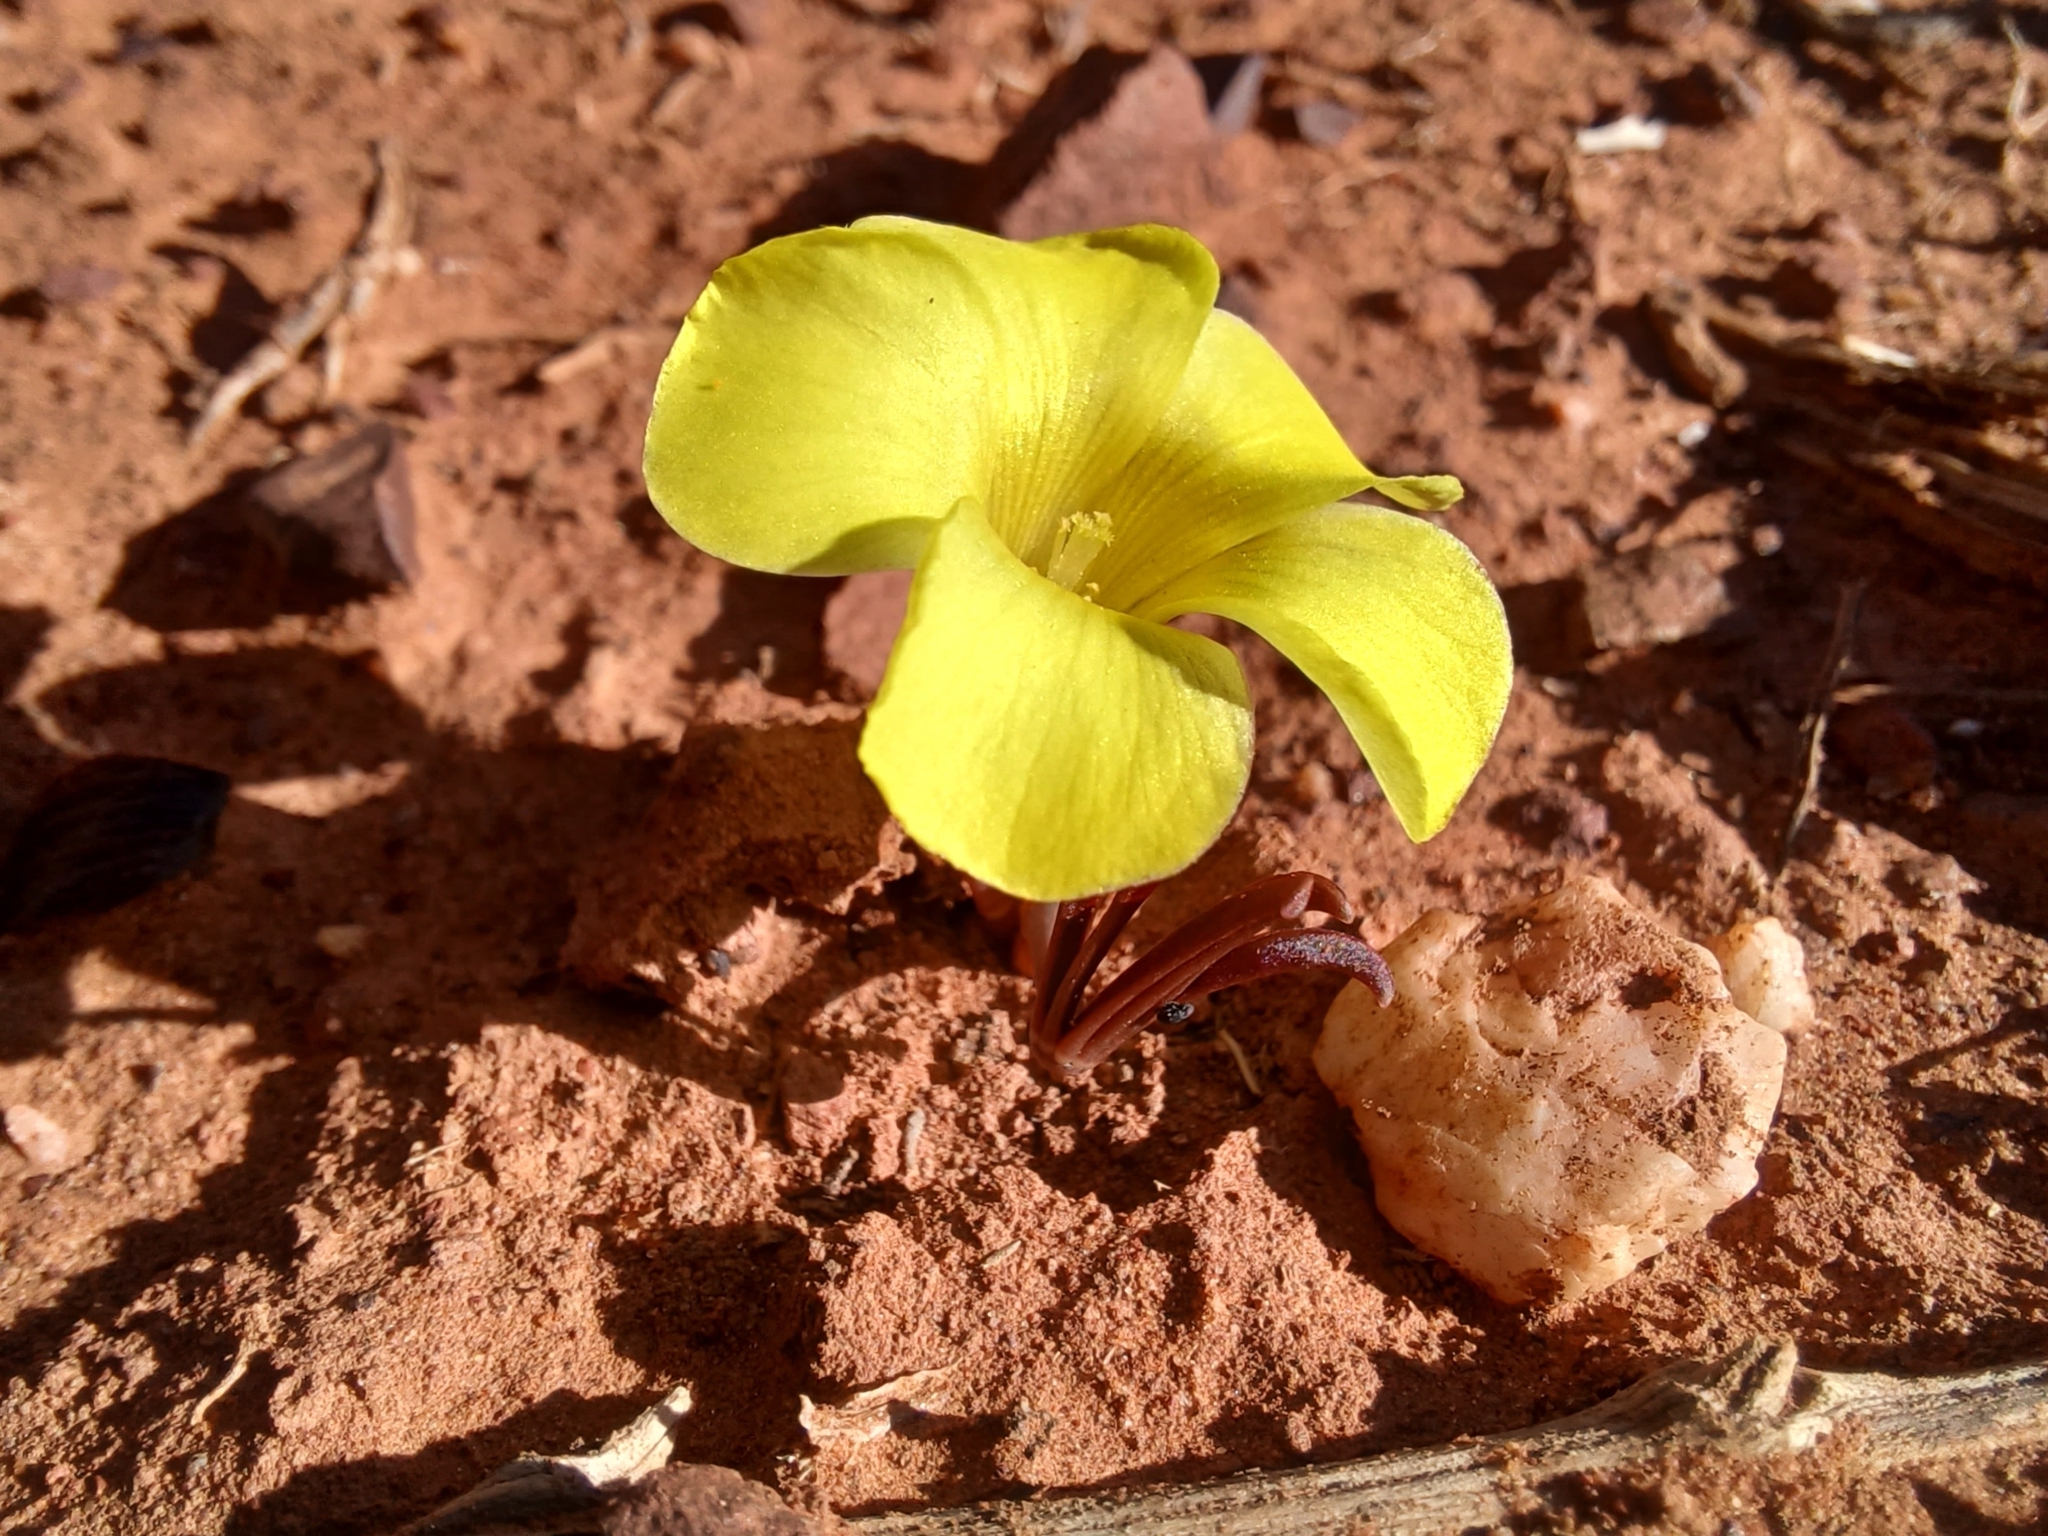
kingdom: Plantae
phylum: Tracheophyta
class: Magnoliopsida
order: Oxalidales
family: Oxalidaceae
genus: Oxalis
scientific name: Oxalis flava
